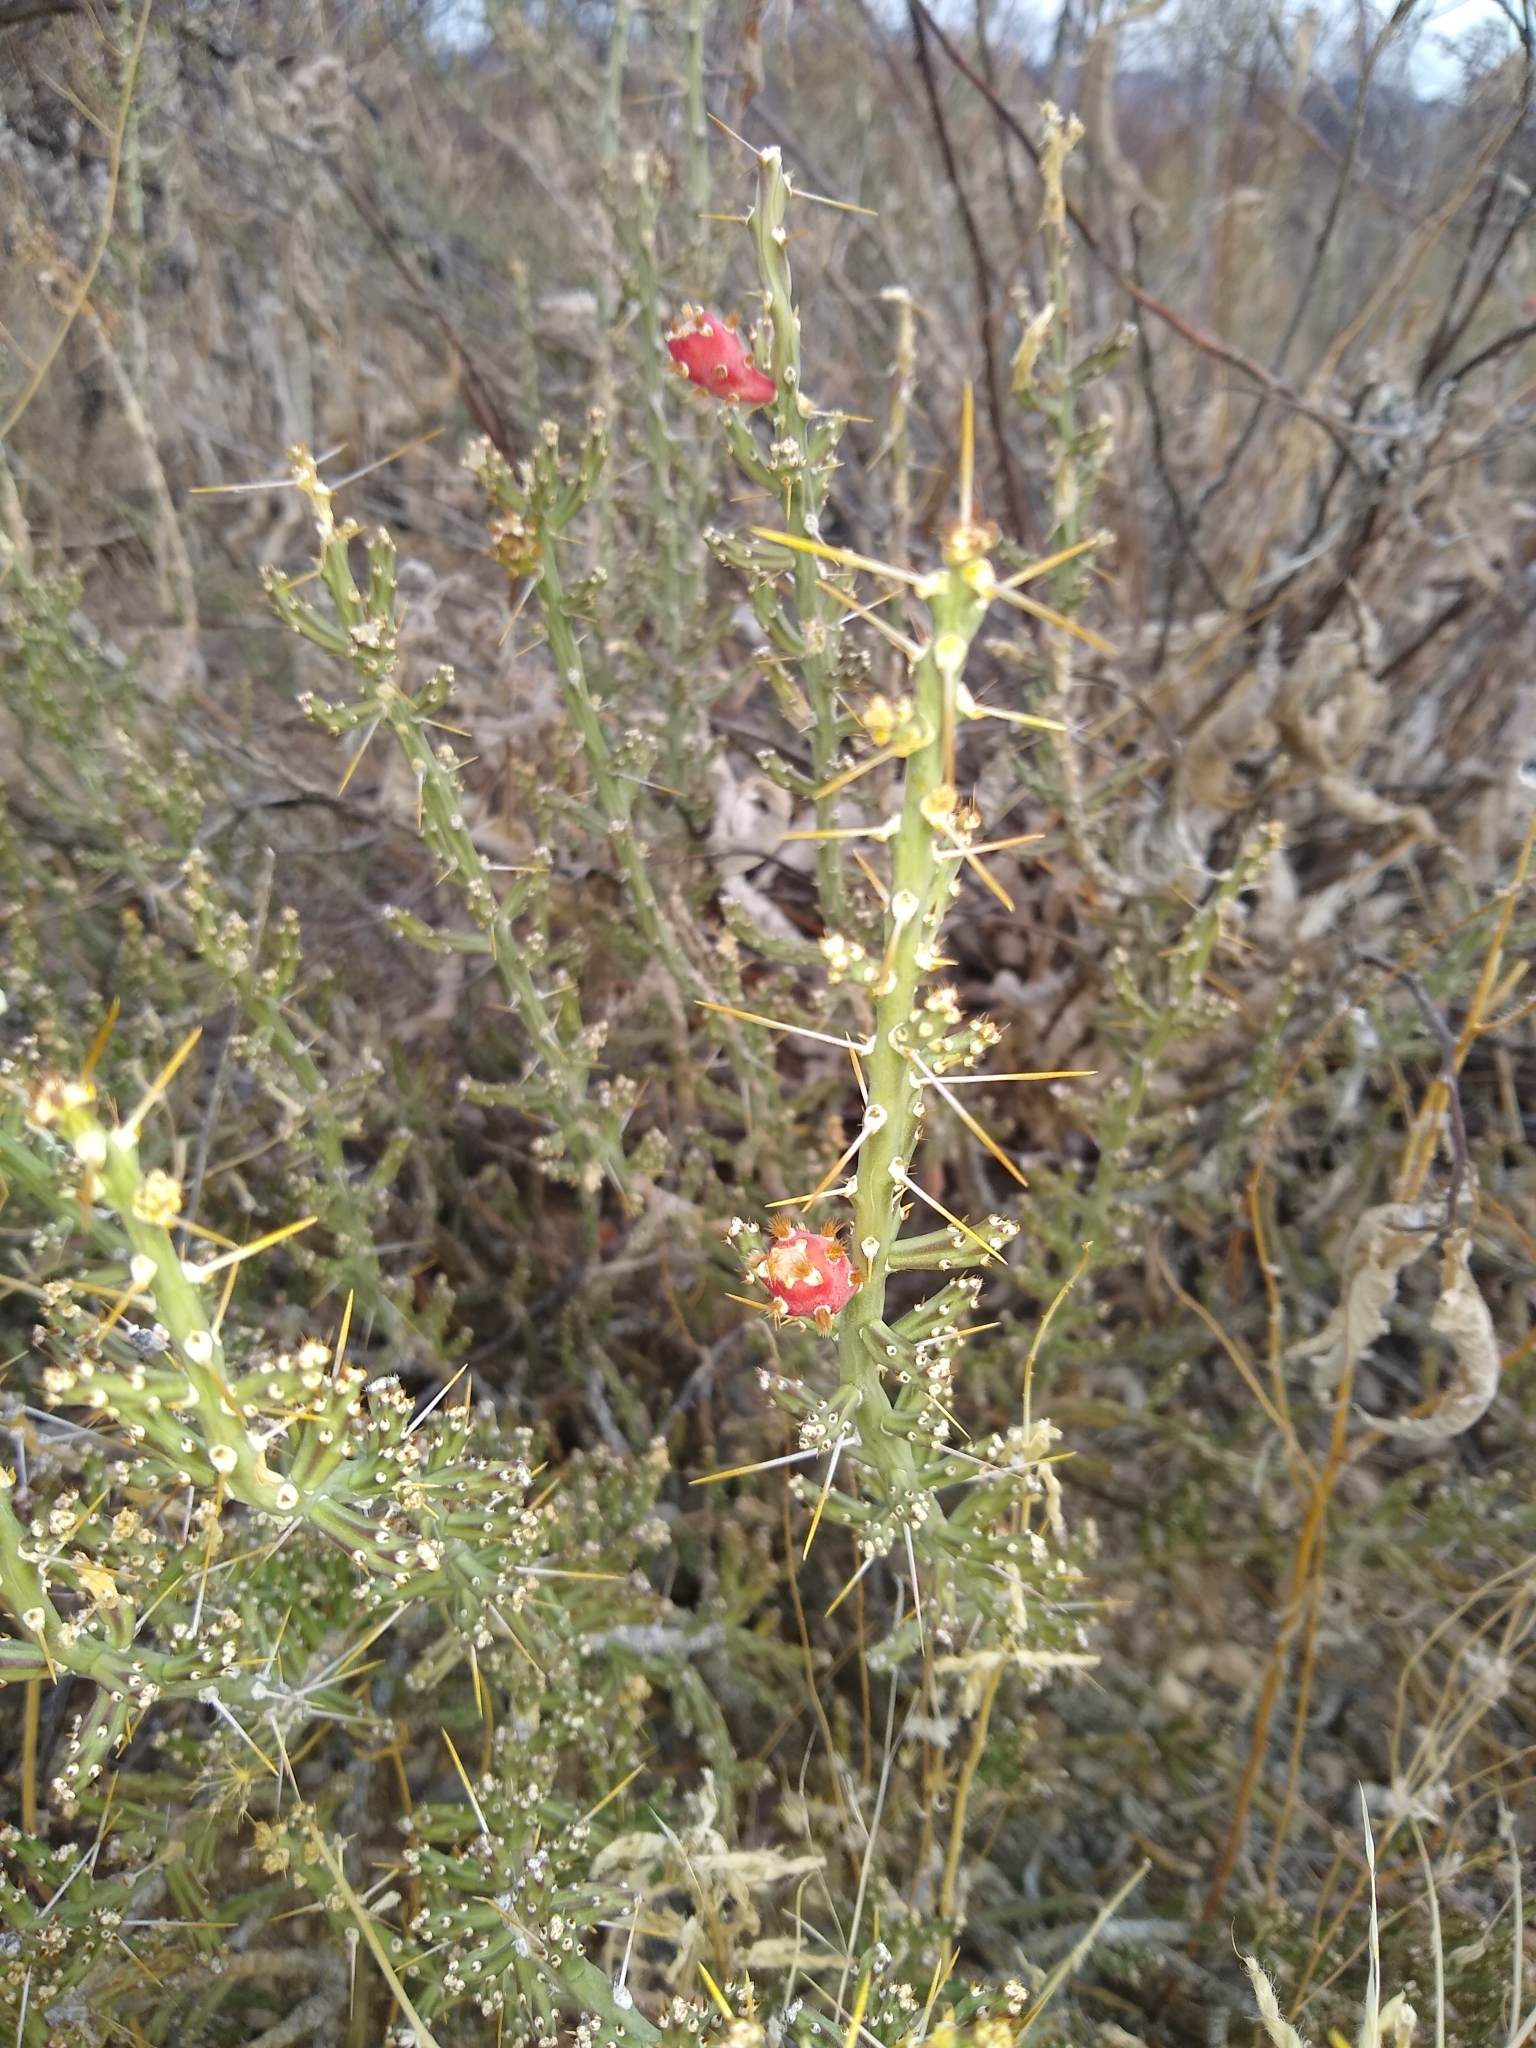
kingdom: Plantae
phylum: Tracheophyta
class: Magnoliopsida
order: Caryophyllales
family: Cactaceae
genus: Cylindropuntia
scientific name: Cylindropuntia leptocaulis
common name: Christmas cactus
